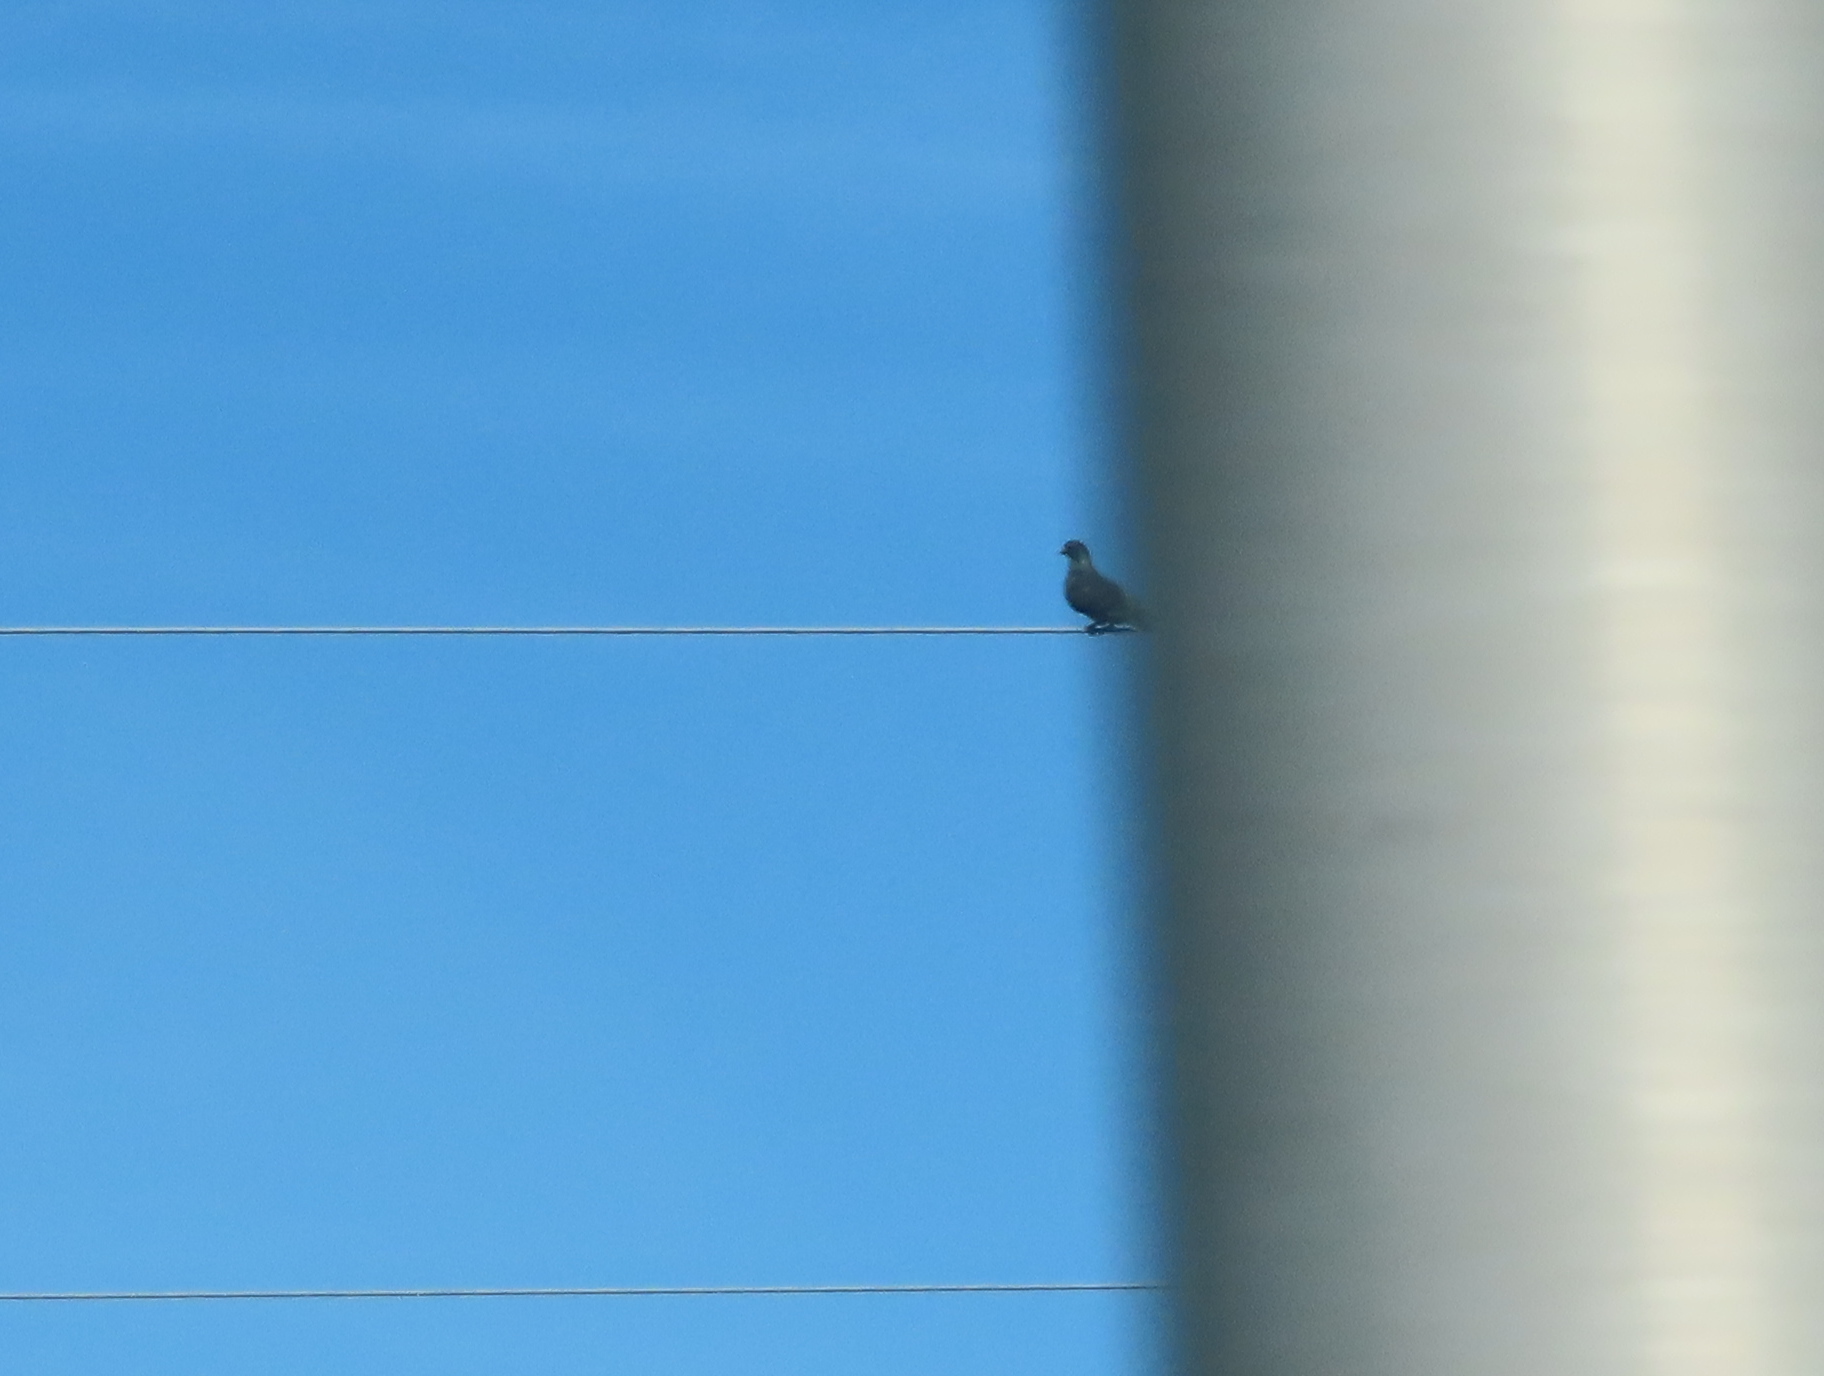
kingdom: Animalia
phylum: Chordata
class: Aves
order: Columbiformes
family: Columbidae
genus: Columba
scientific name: Columba livia
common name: Rock pigeon
